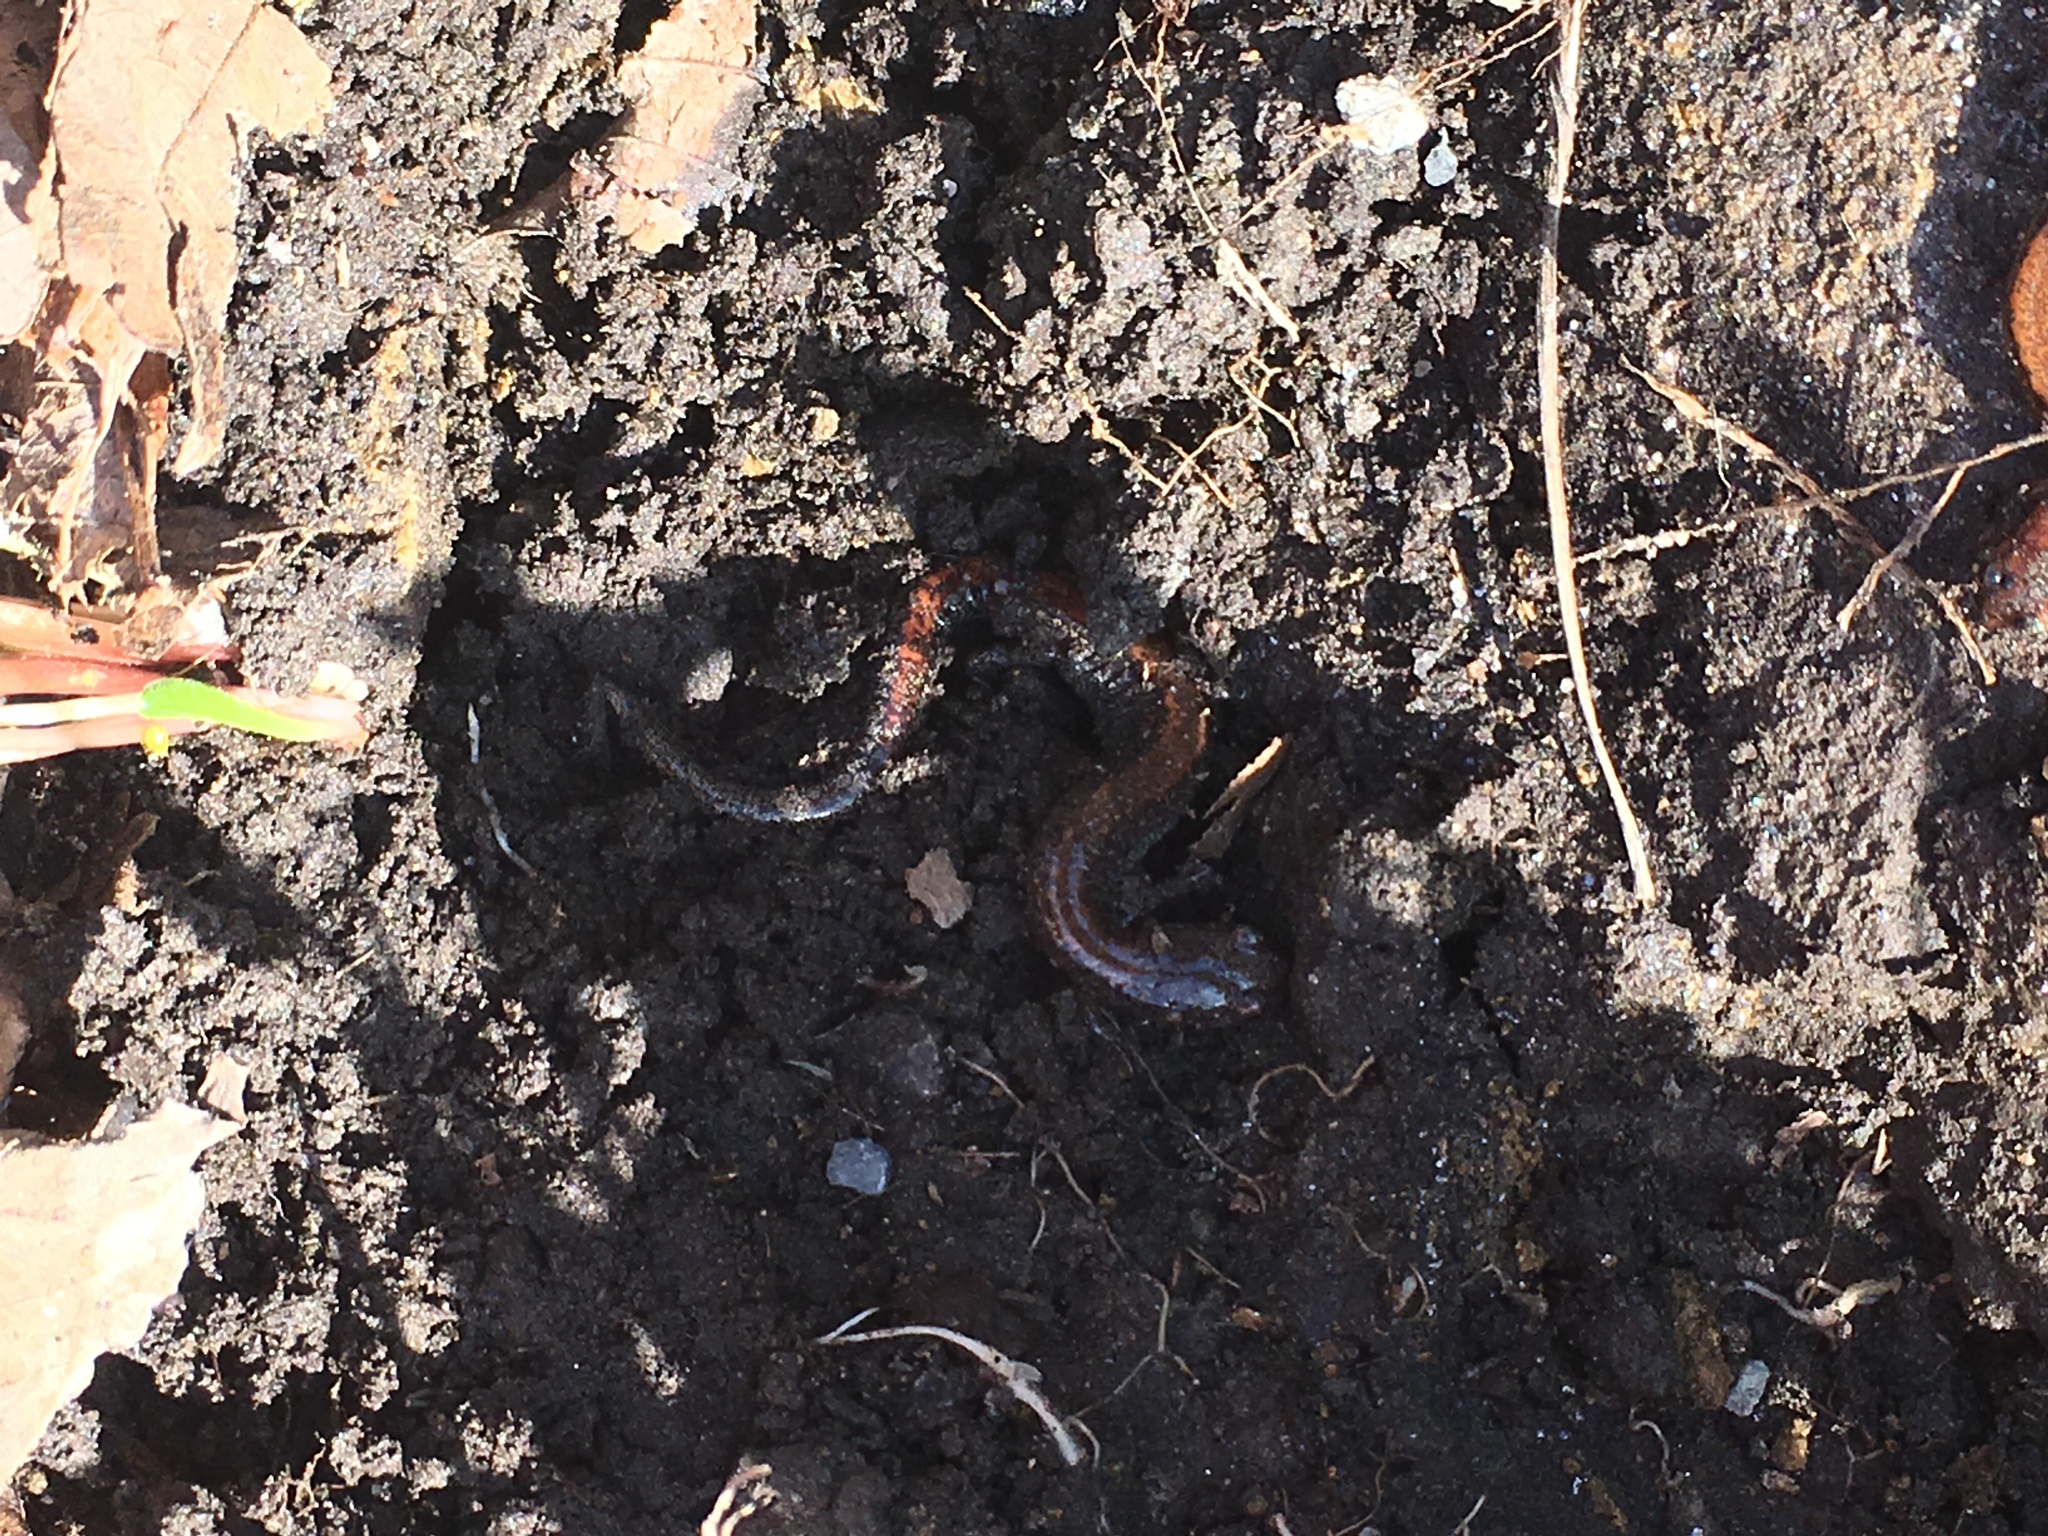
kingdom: Animalia
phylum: Chordata
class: Amphibia
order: Caudata
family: Plethodontidae
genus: Plethodon
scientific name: Plethodon cinereus
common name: Redback salamander
